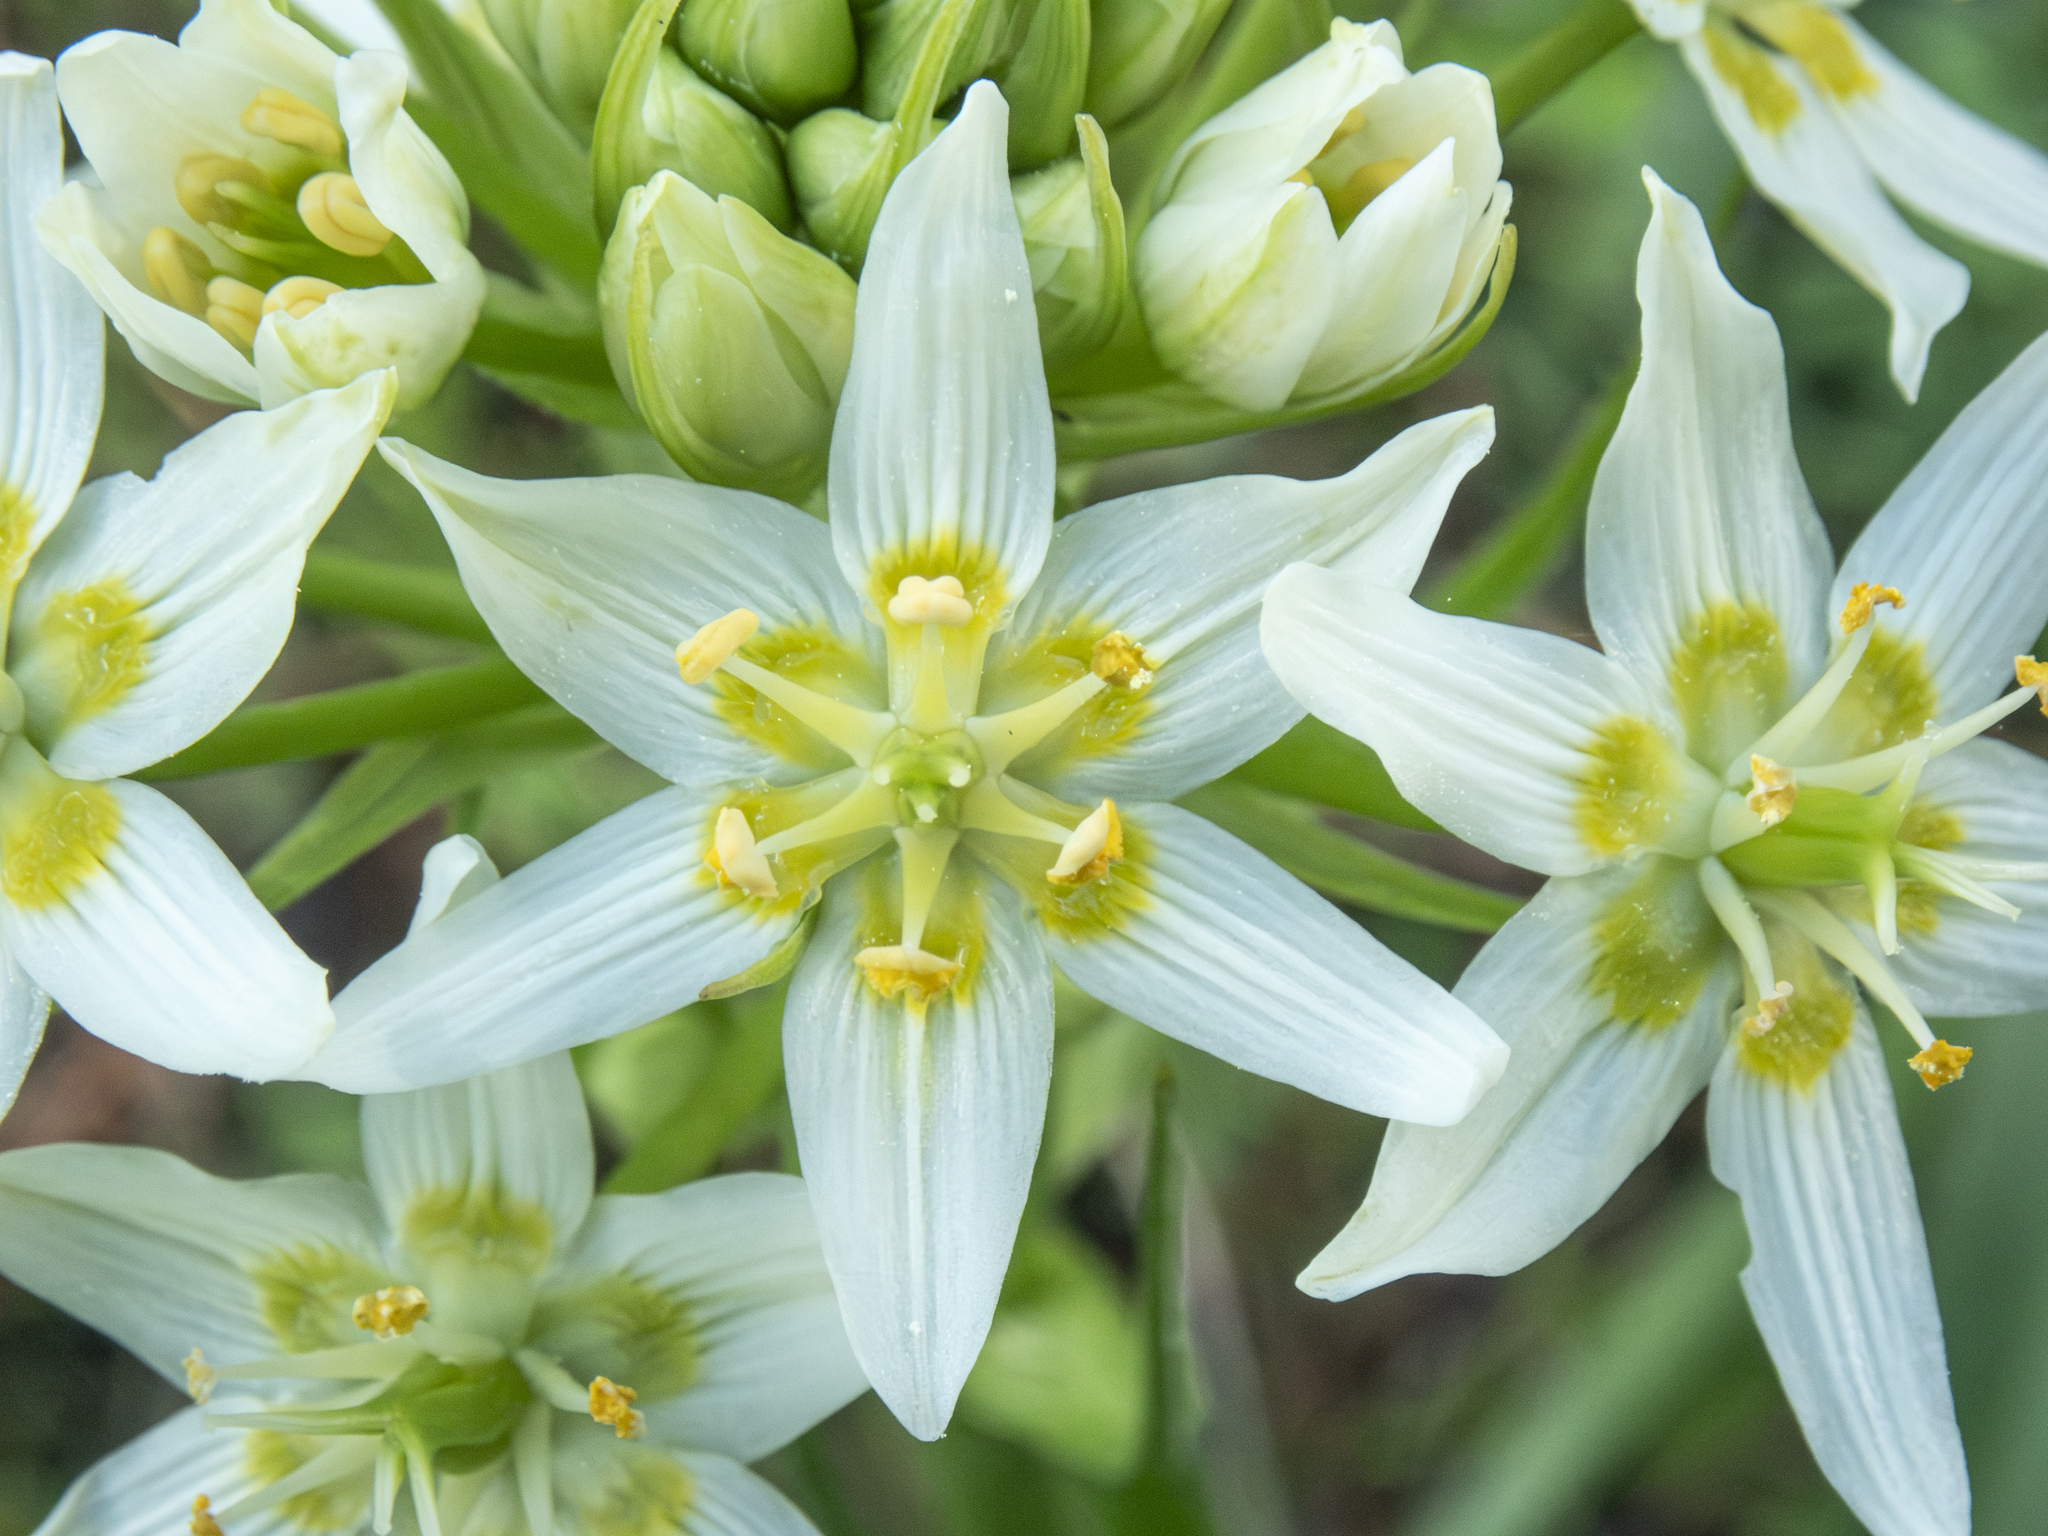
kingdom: Plantae
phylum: Tracheophyta
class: Liliopsida
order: Liliales
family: Melanthiaceae
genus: Toxicoscordion
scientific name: Toxicoscordion fremontii
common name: Fremont's death camas
